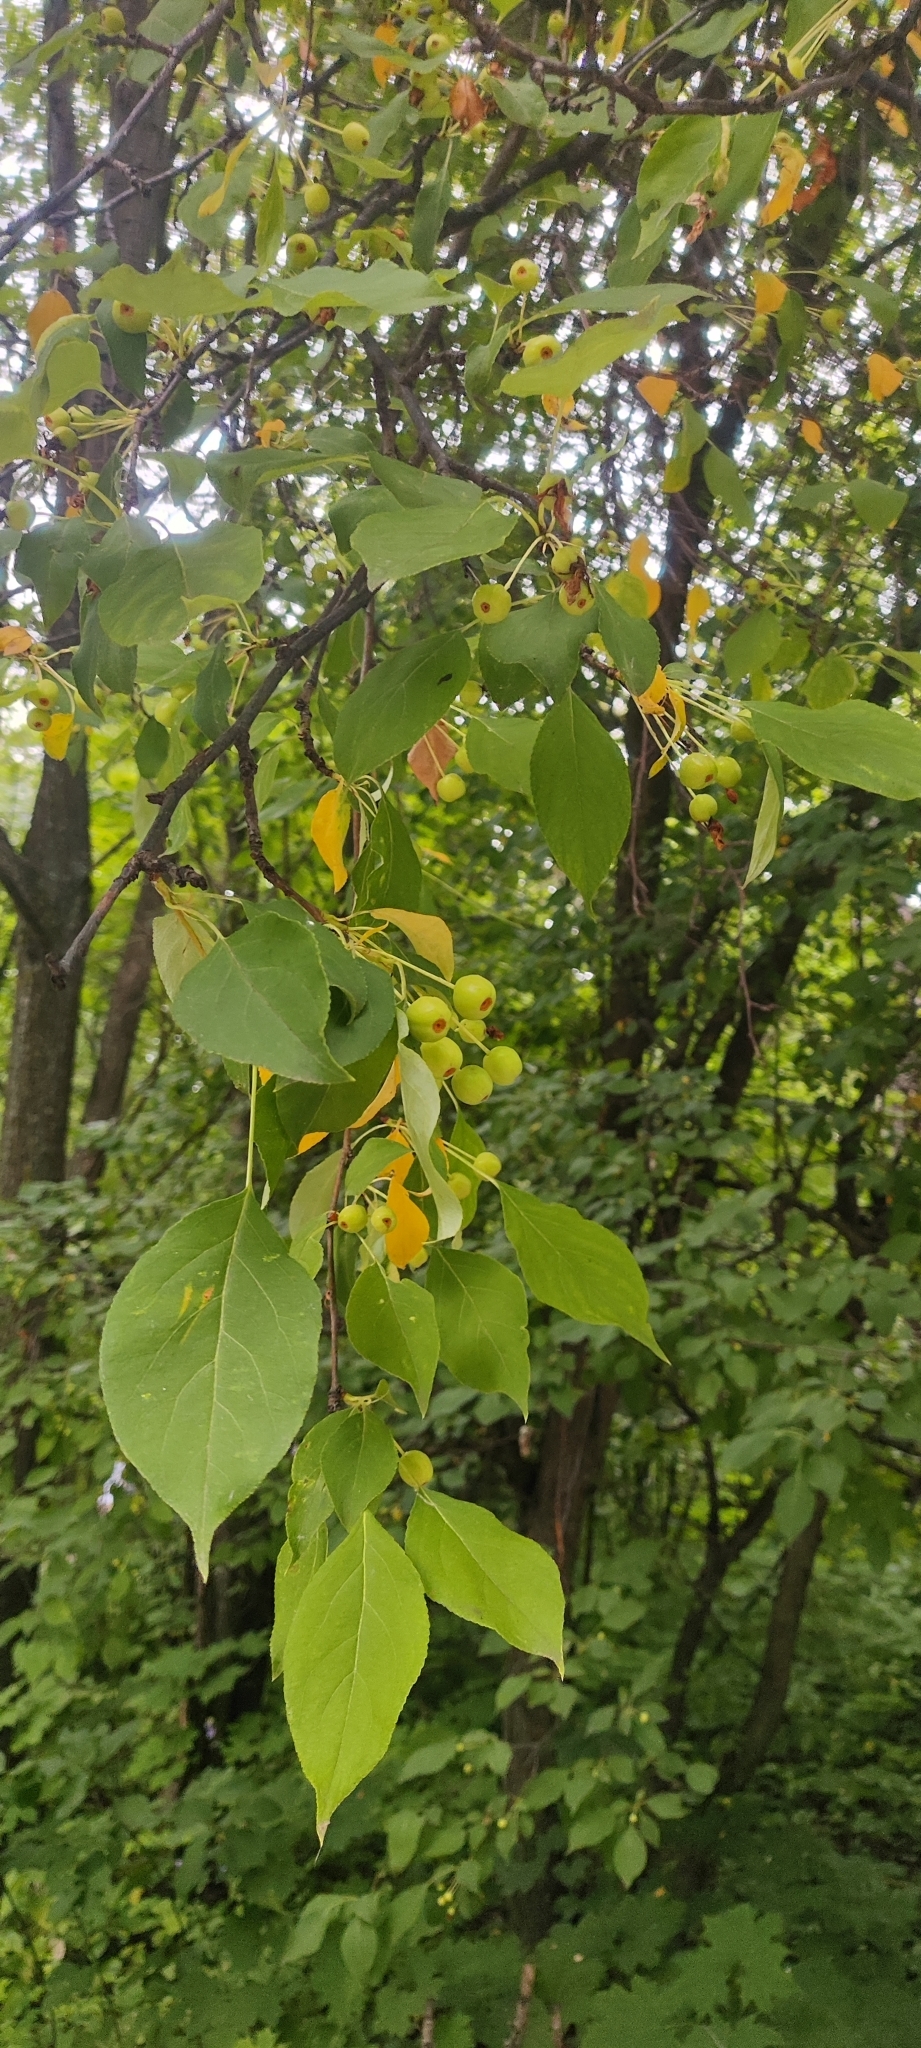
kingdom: Plantae
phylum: Tracheophyta
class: Magnoliopsida
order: Rosales
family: Rosaceae
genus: Malus
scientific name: Malus baccata
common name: Siberian crab
